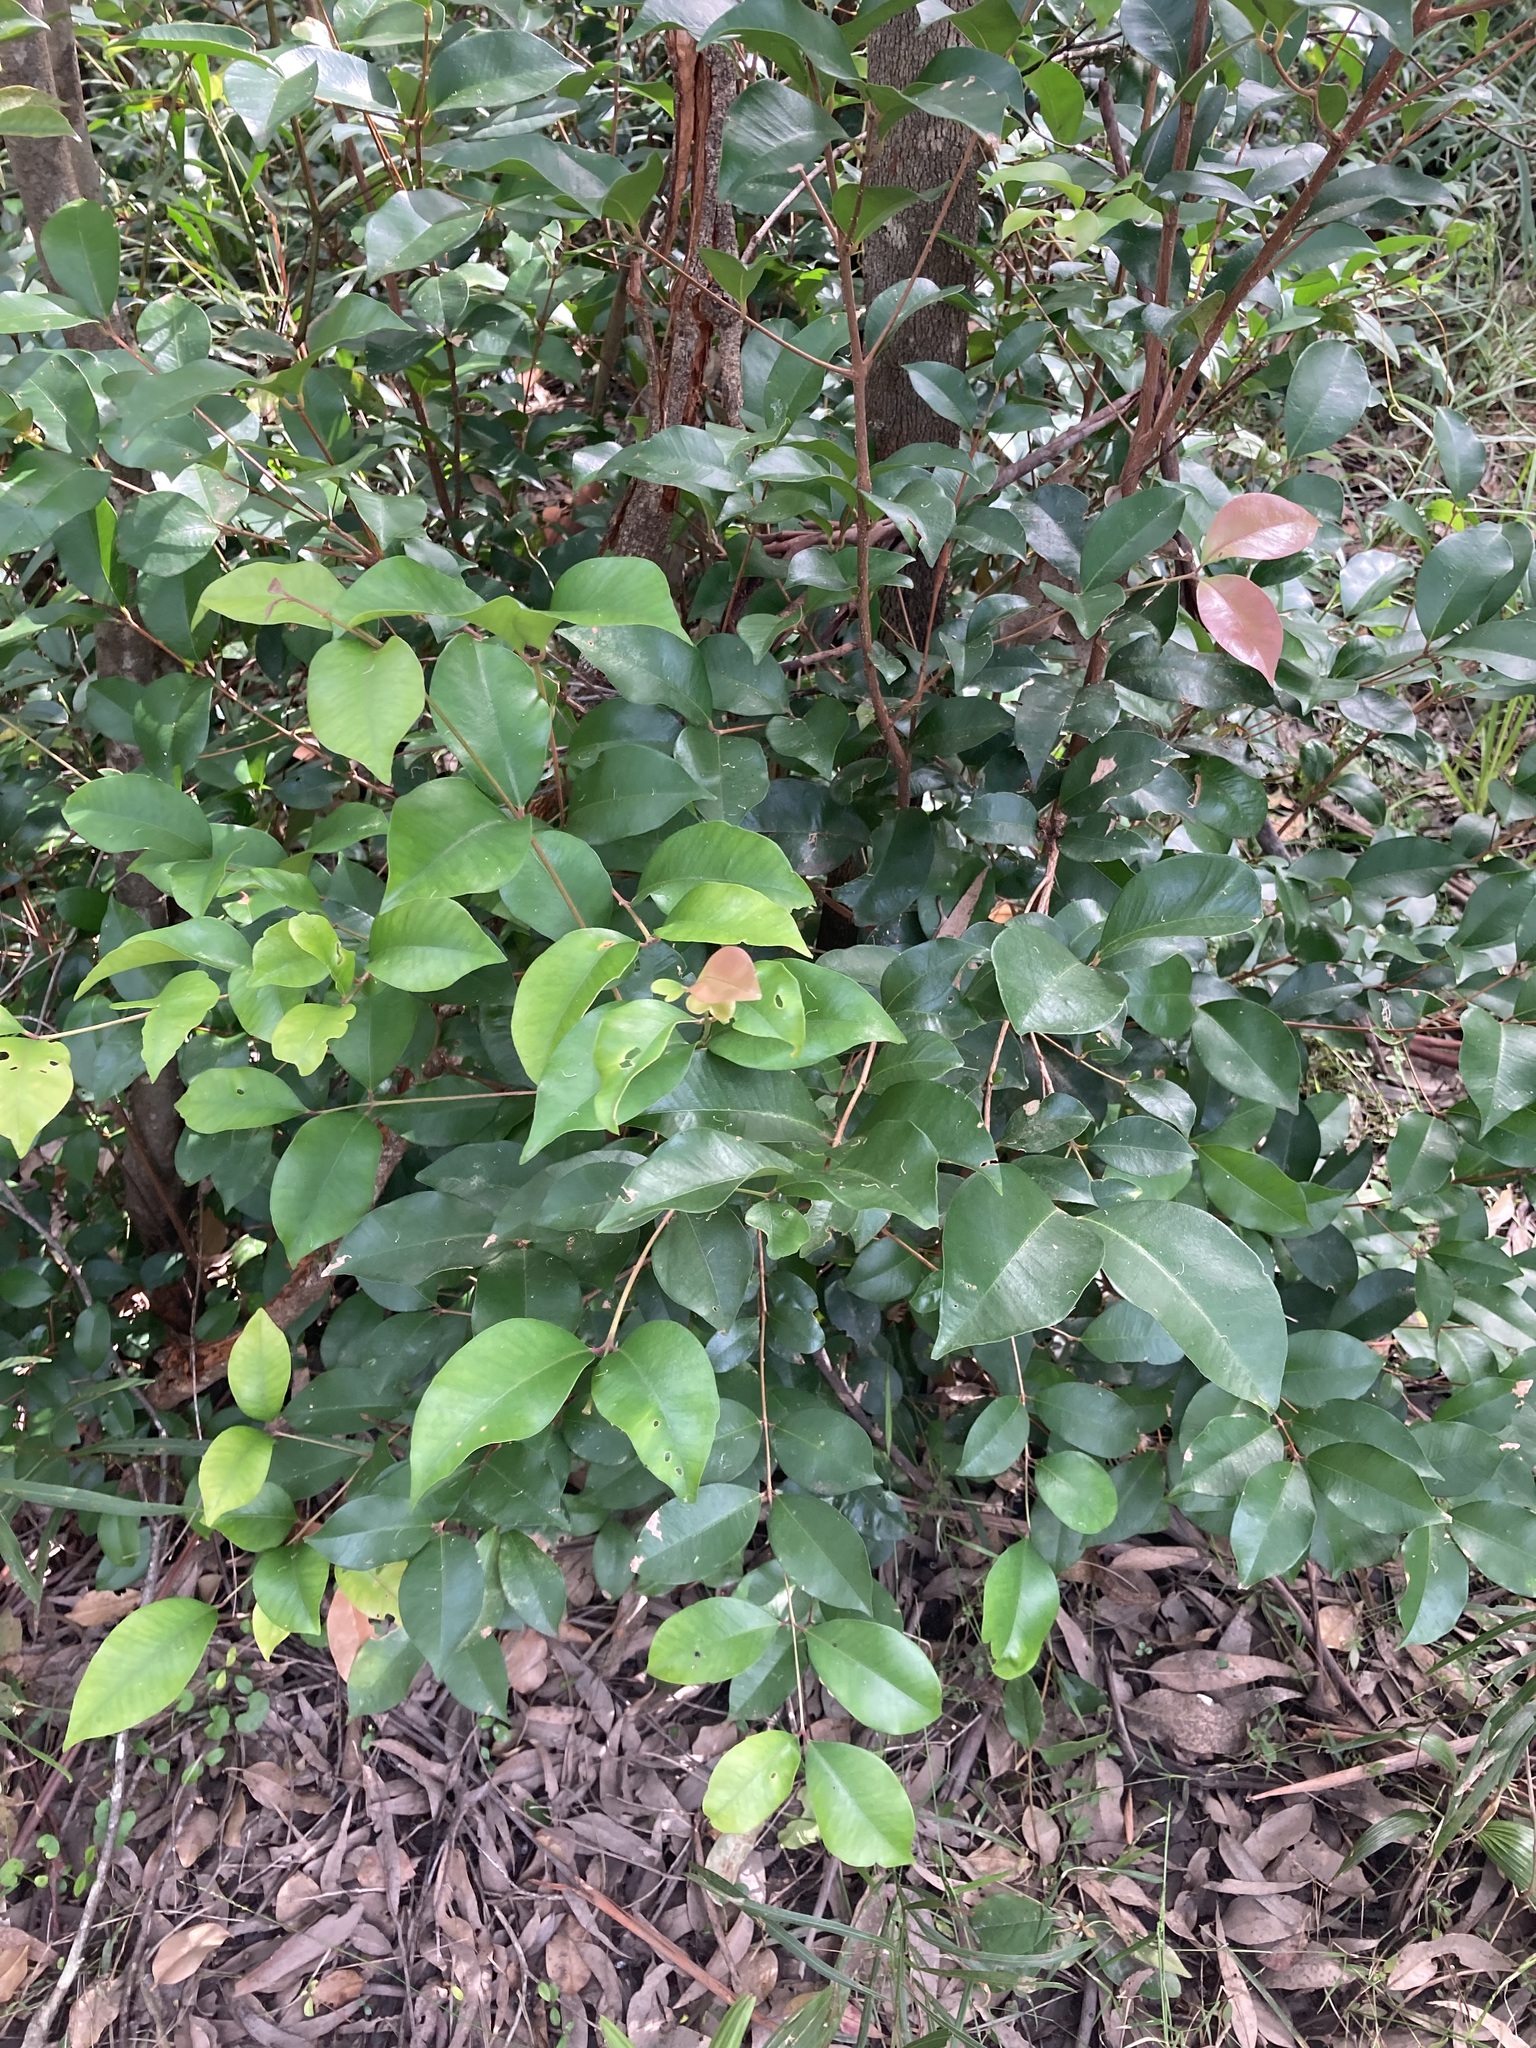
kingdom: Plantae
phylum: Tracheophyta
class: Magnoliopsida
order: Myrtales
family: Myrtaceae
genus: Syzygium
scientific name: Syzygium smithii
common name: Lilly-pilly
